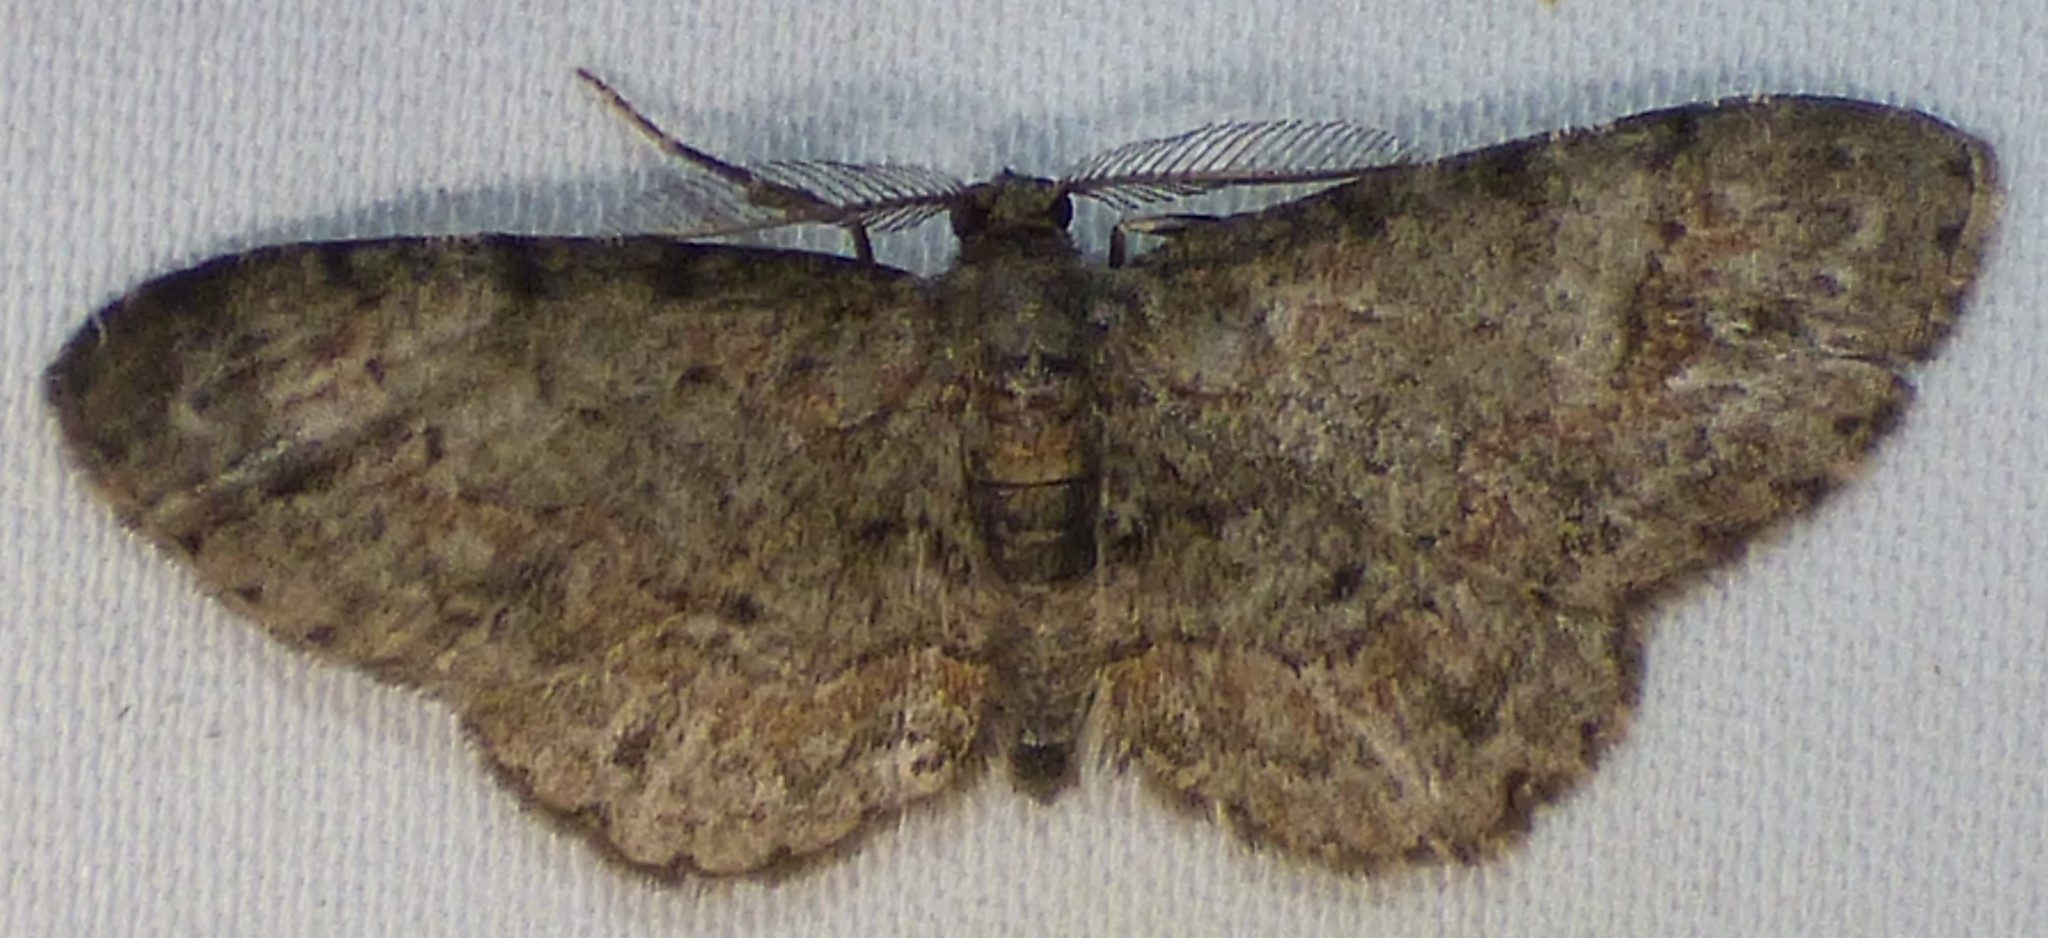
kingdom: Animalia
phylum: Arthropoda
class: Insecta
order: Lepidoptera
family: Geometridae
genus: Glenoides
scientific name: Glenoides texanaria
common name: Texas gray
